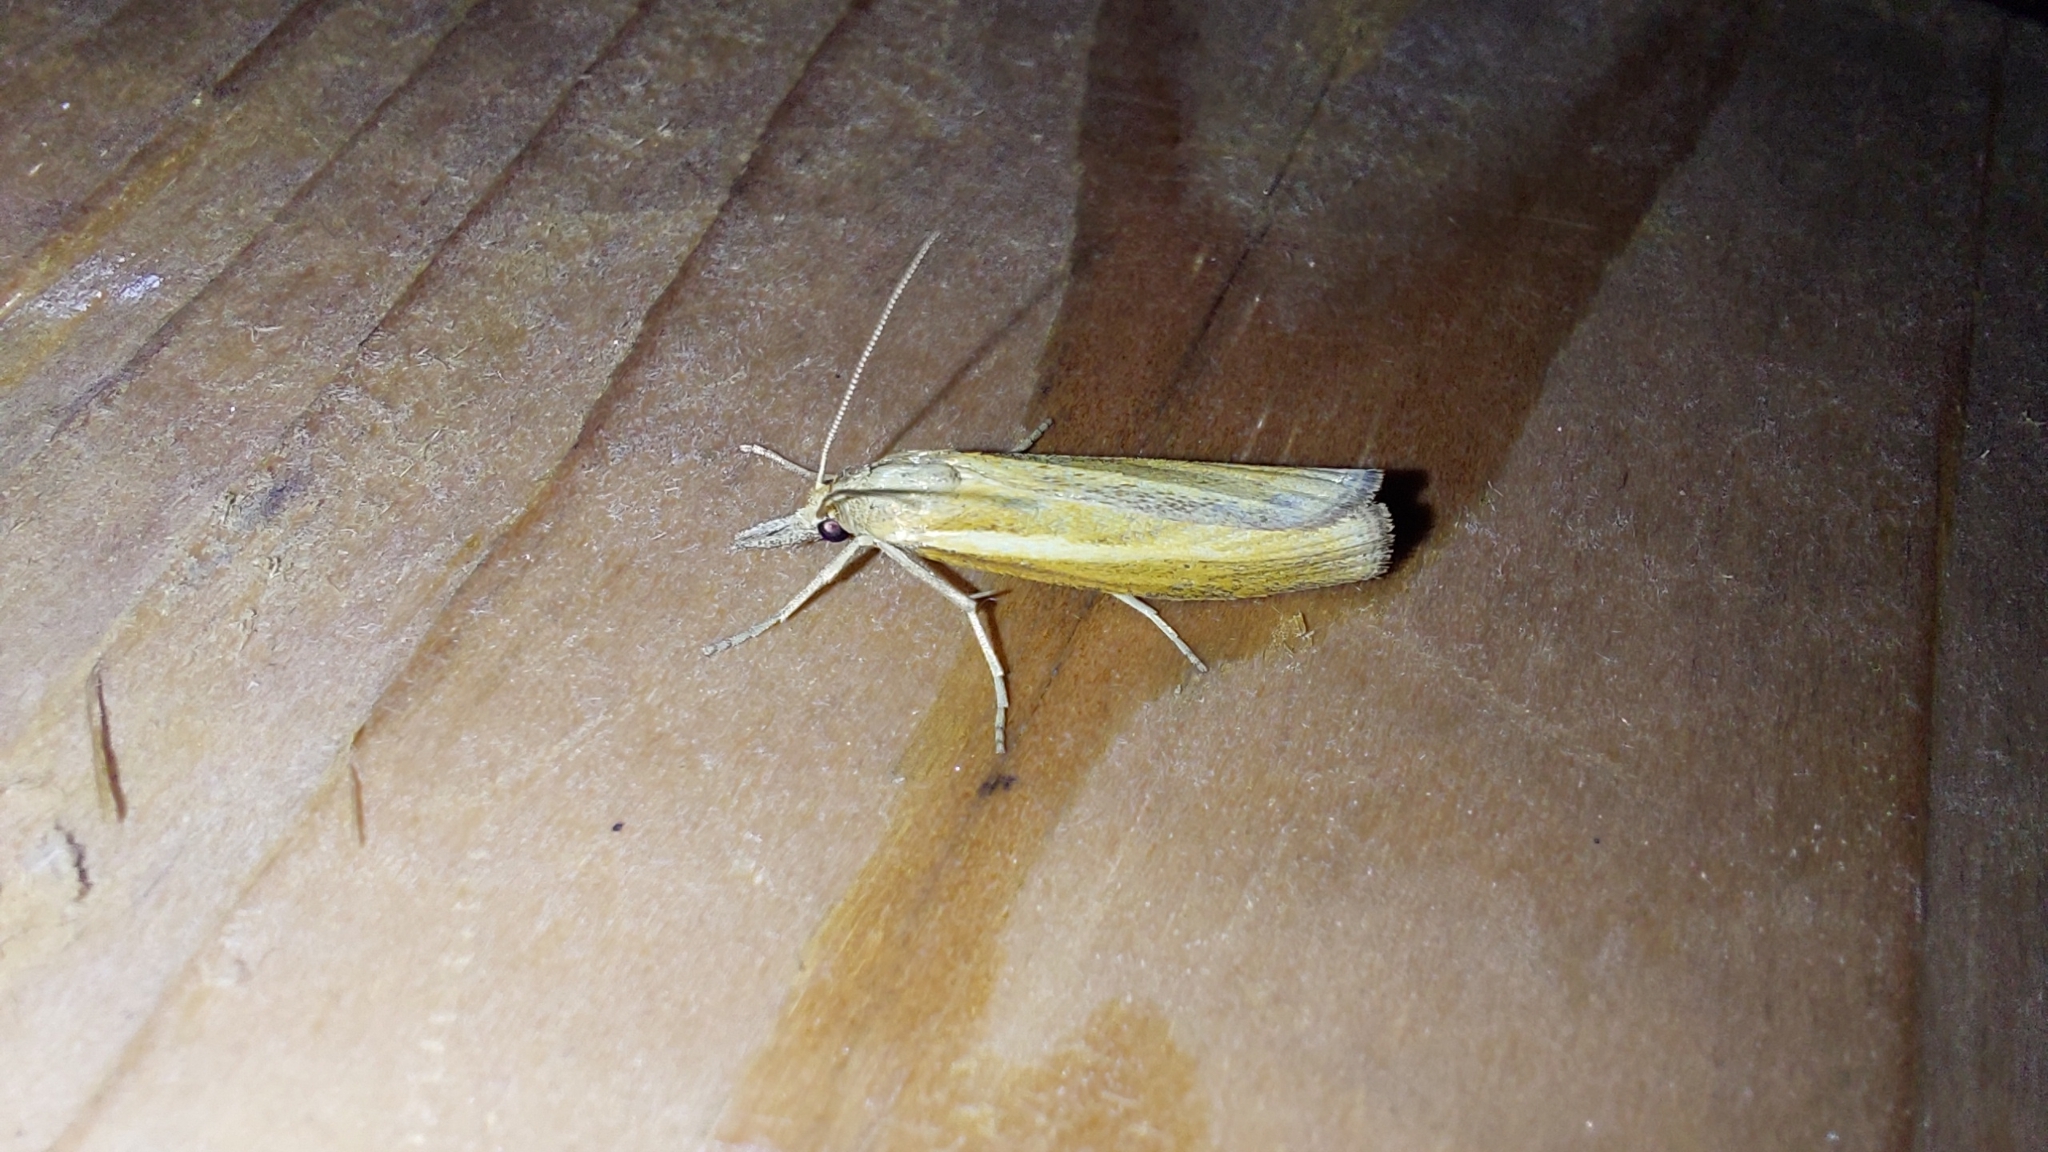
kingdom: Animalia
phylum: Arthropoda
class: Insecta
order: Lepidoptera
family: Crambidae
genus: Agriphila
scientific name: Agriphila tristellus
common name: Common grass-veneer
